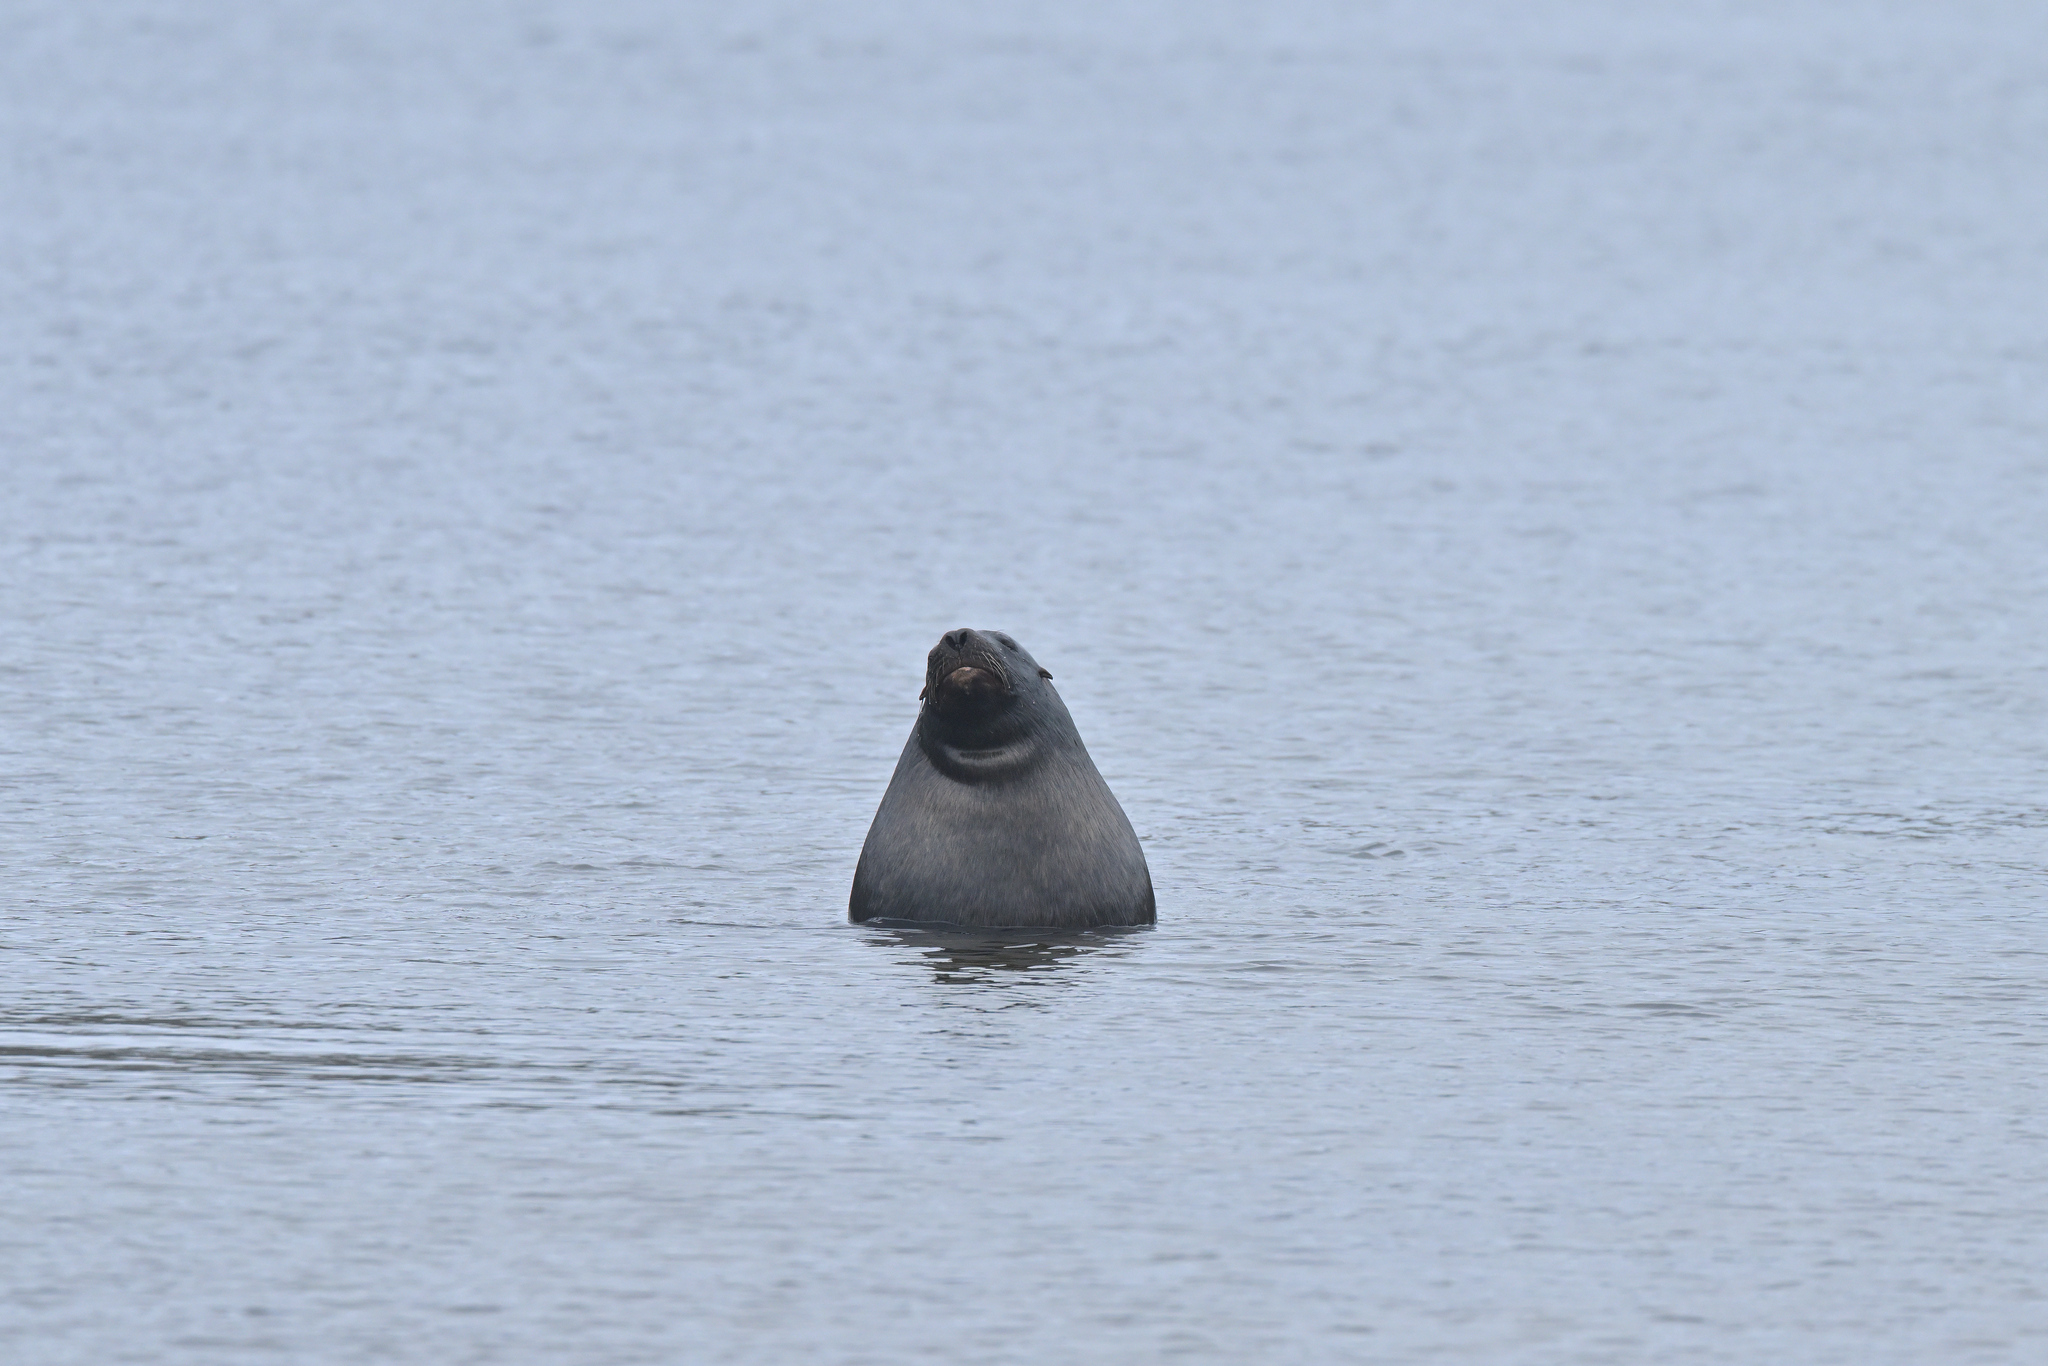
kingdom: Animalia
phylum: Chordata
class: Mammalia
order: Carnivora
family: Otariidae
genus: Phocarctos
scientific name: Phocarctos hookeri
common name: New zealand sea lion
